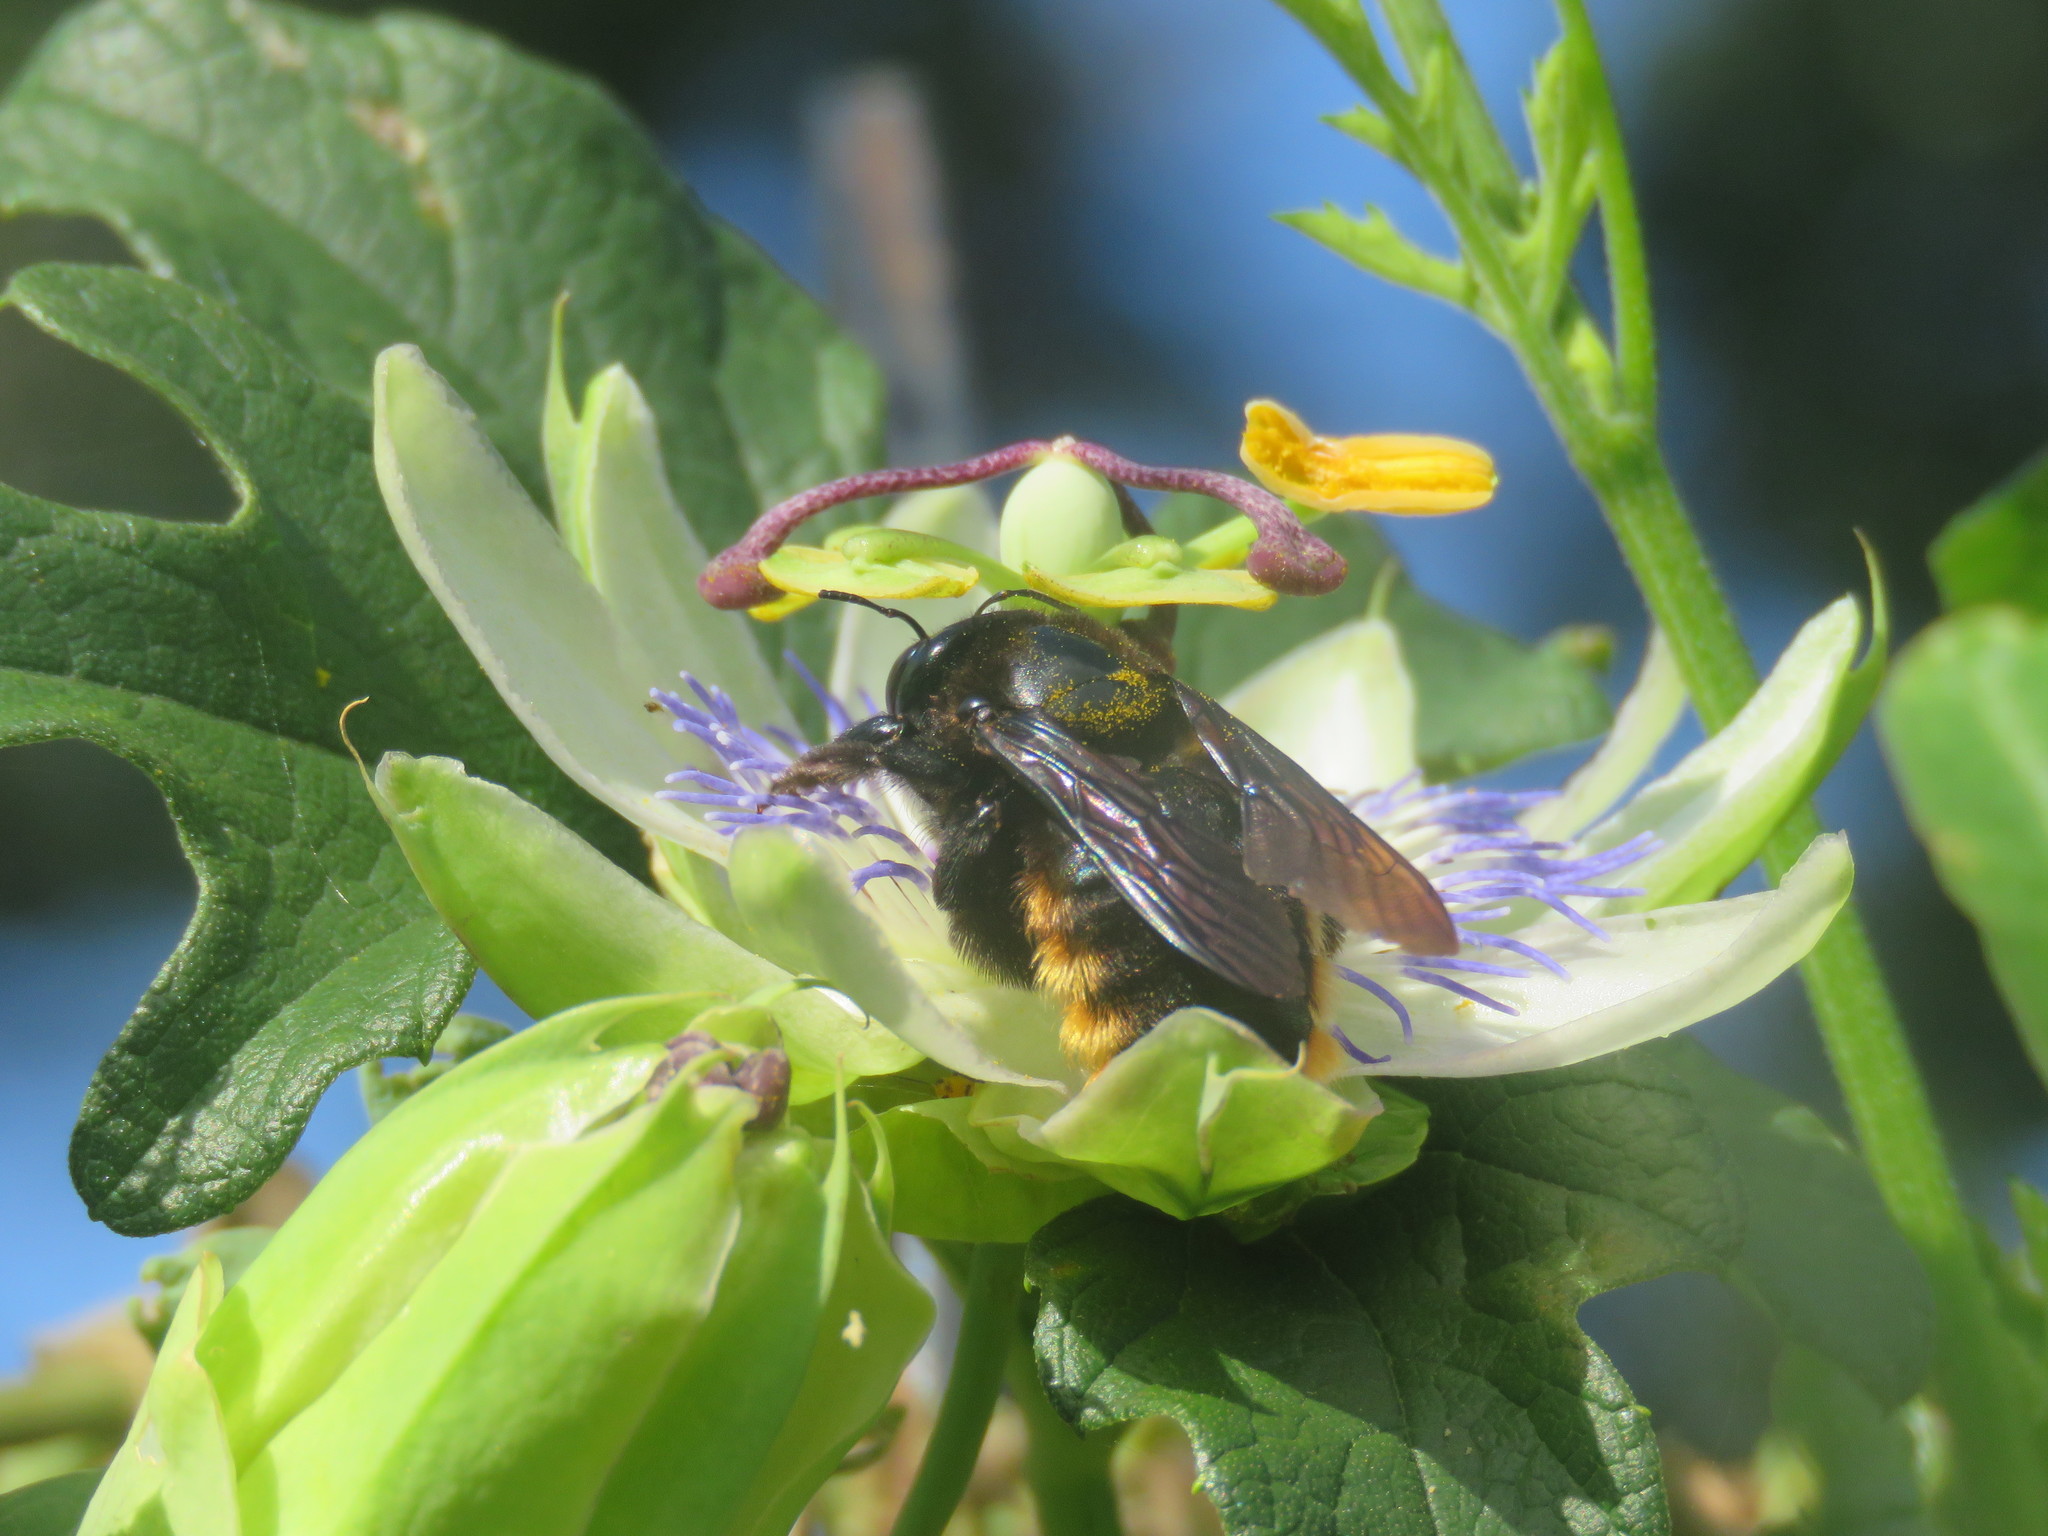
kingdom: Animalia
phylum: Arthropoda
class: Insecta
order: Hymenoptera
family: Apidae
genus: Xylocopa
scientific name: Xylocopa augusti
